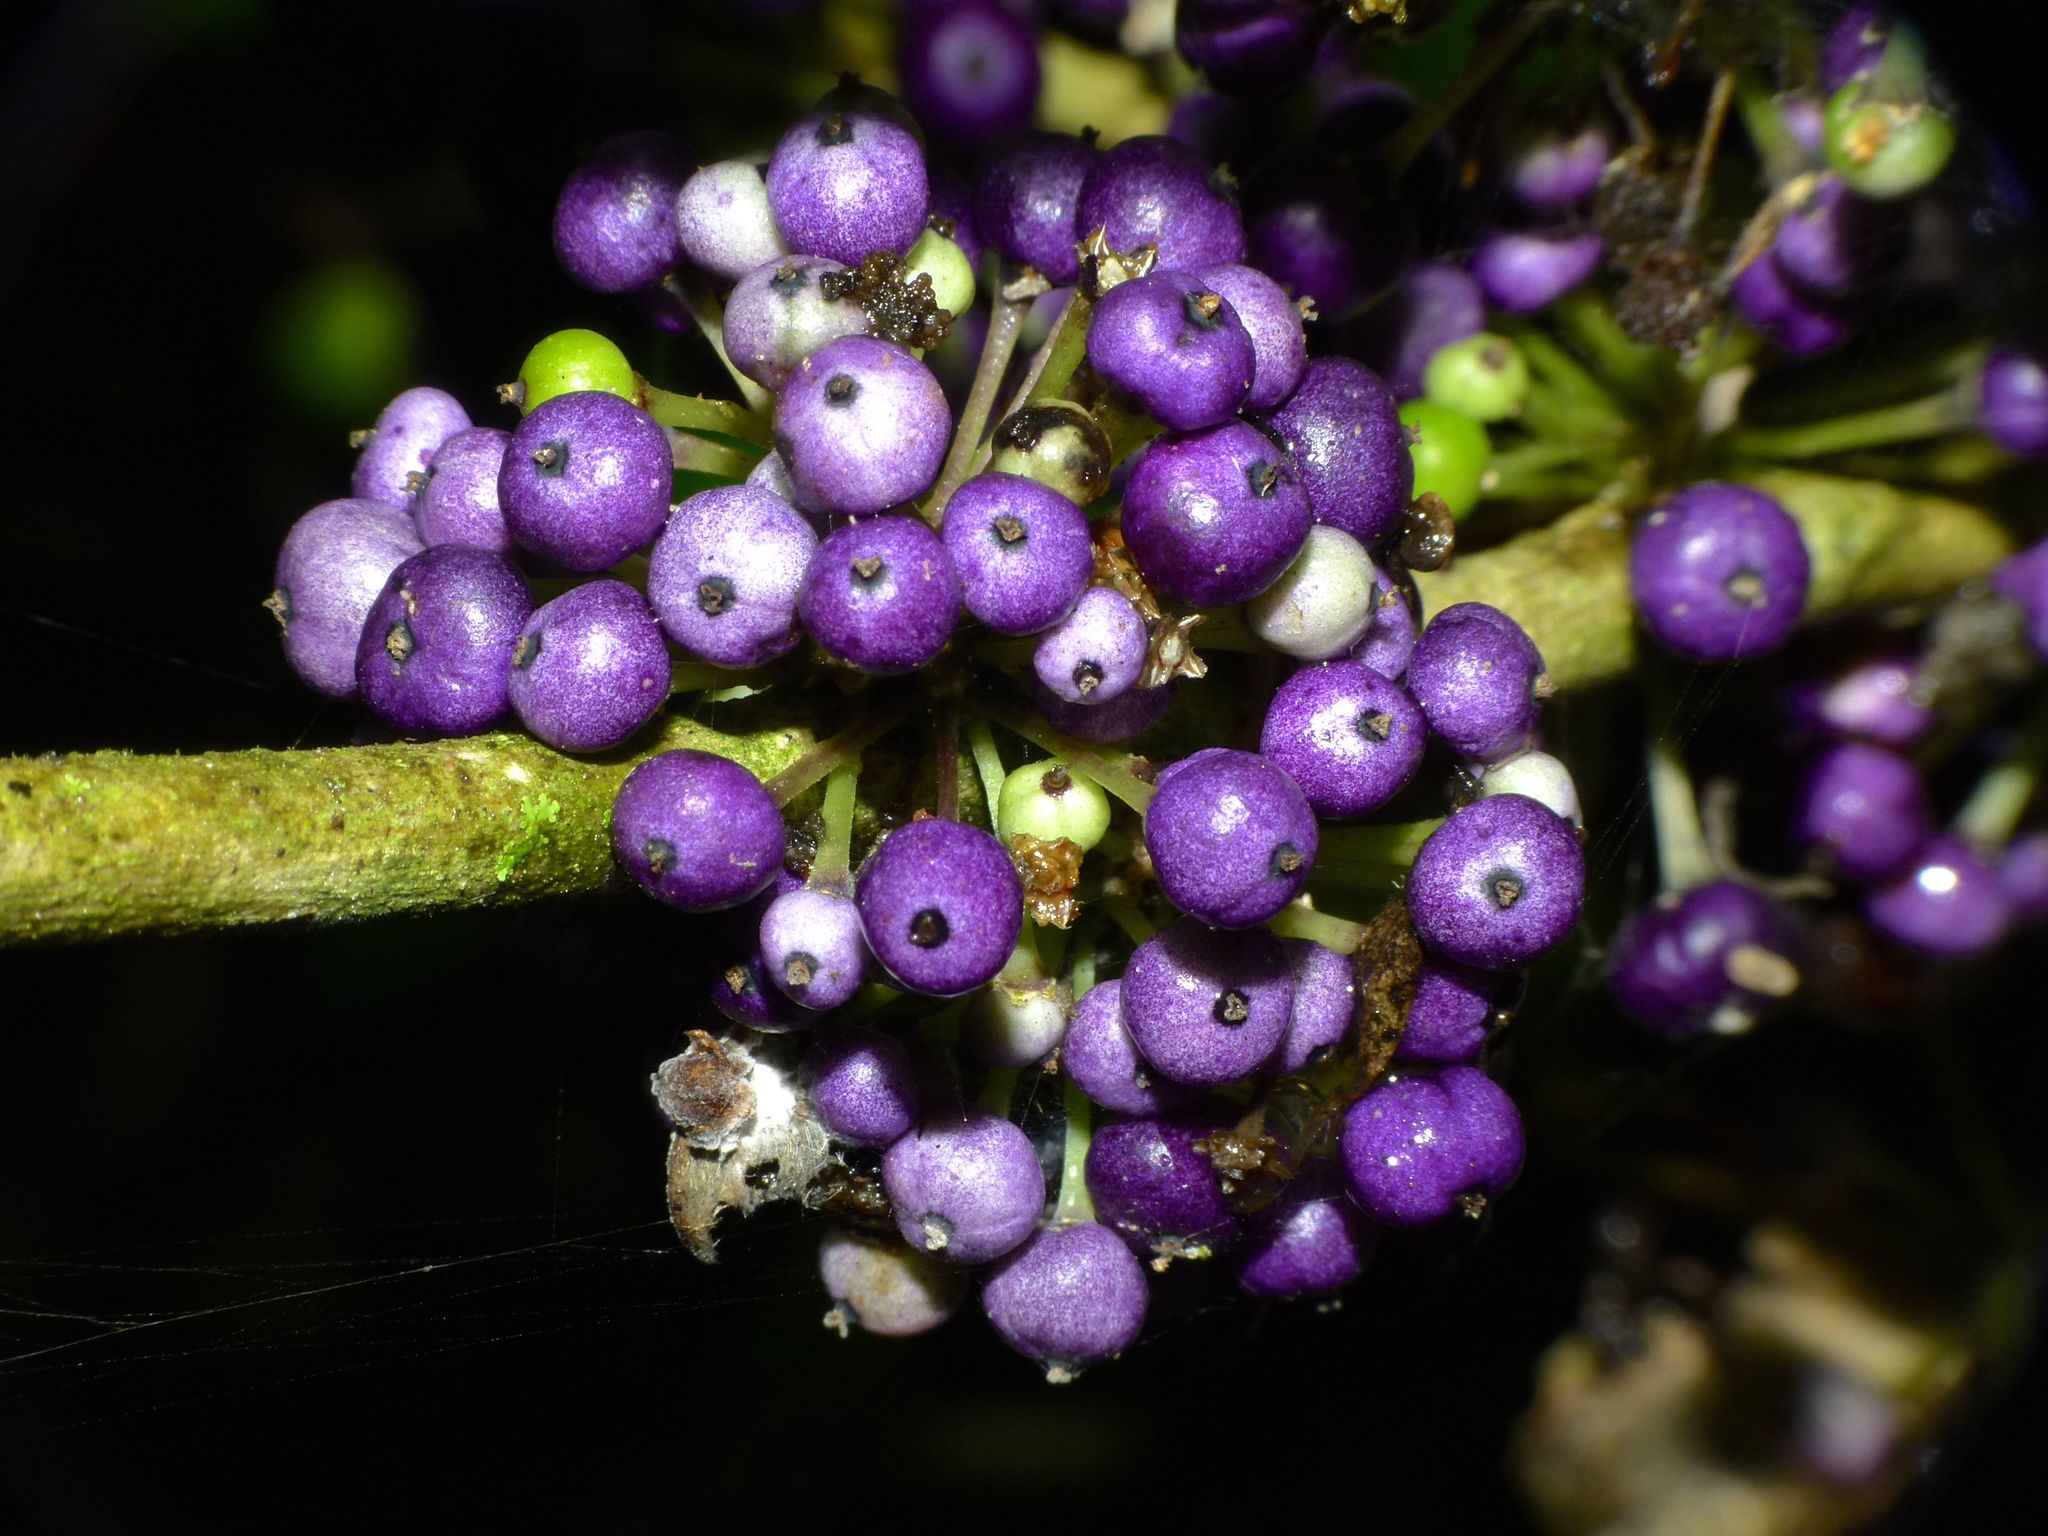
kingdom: Plantae
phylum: Tracheophyta
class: Magnoliopsida
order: Malpighiales
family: Violaceae
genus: Melicytus
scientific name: Melicytus ramiflorus
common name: Mahoe
